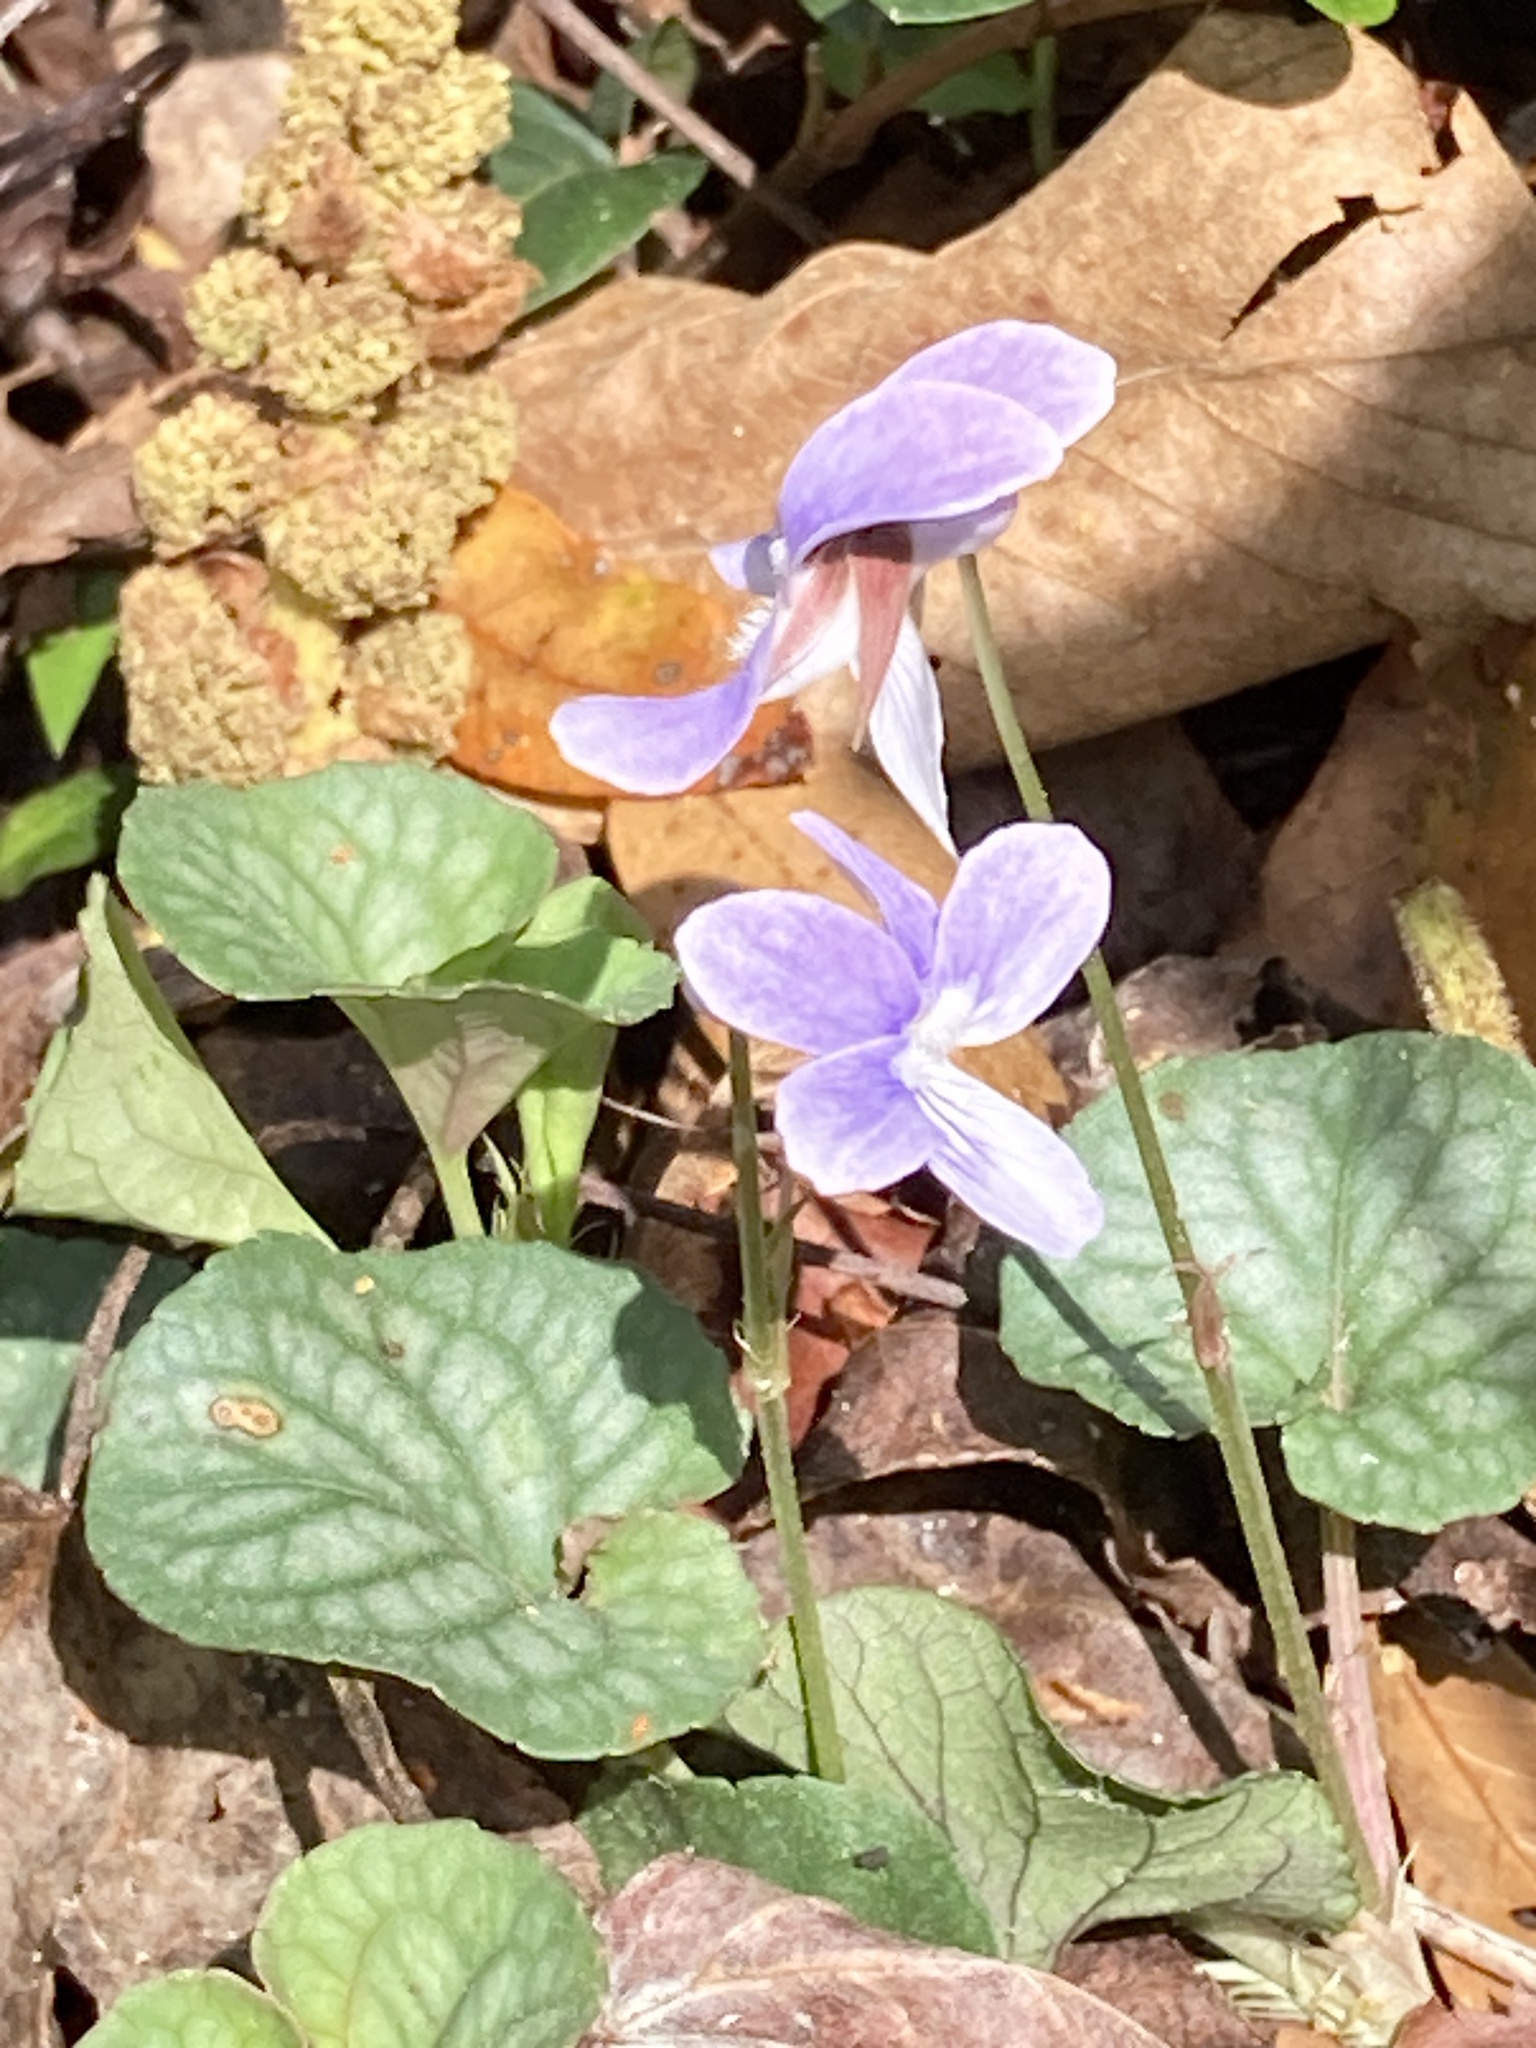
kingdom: Plantae
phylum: Tracheophyta
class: Magnoliopsida
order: Malpighiales
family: Violaceae
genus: Viola
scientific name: Viola walteri
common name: Prostrate southern violet
